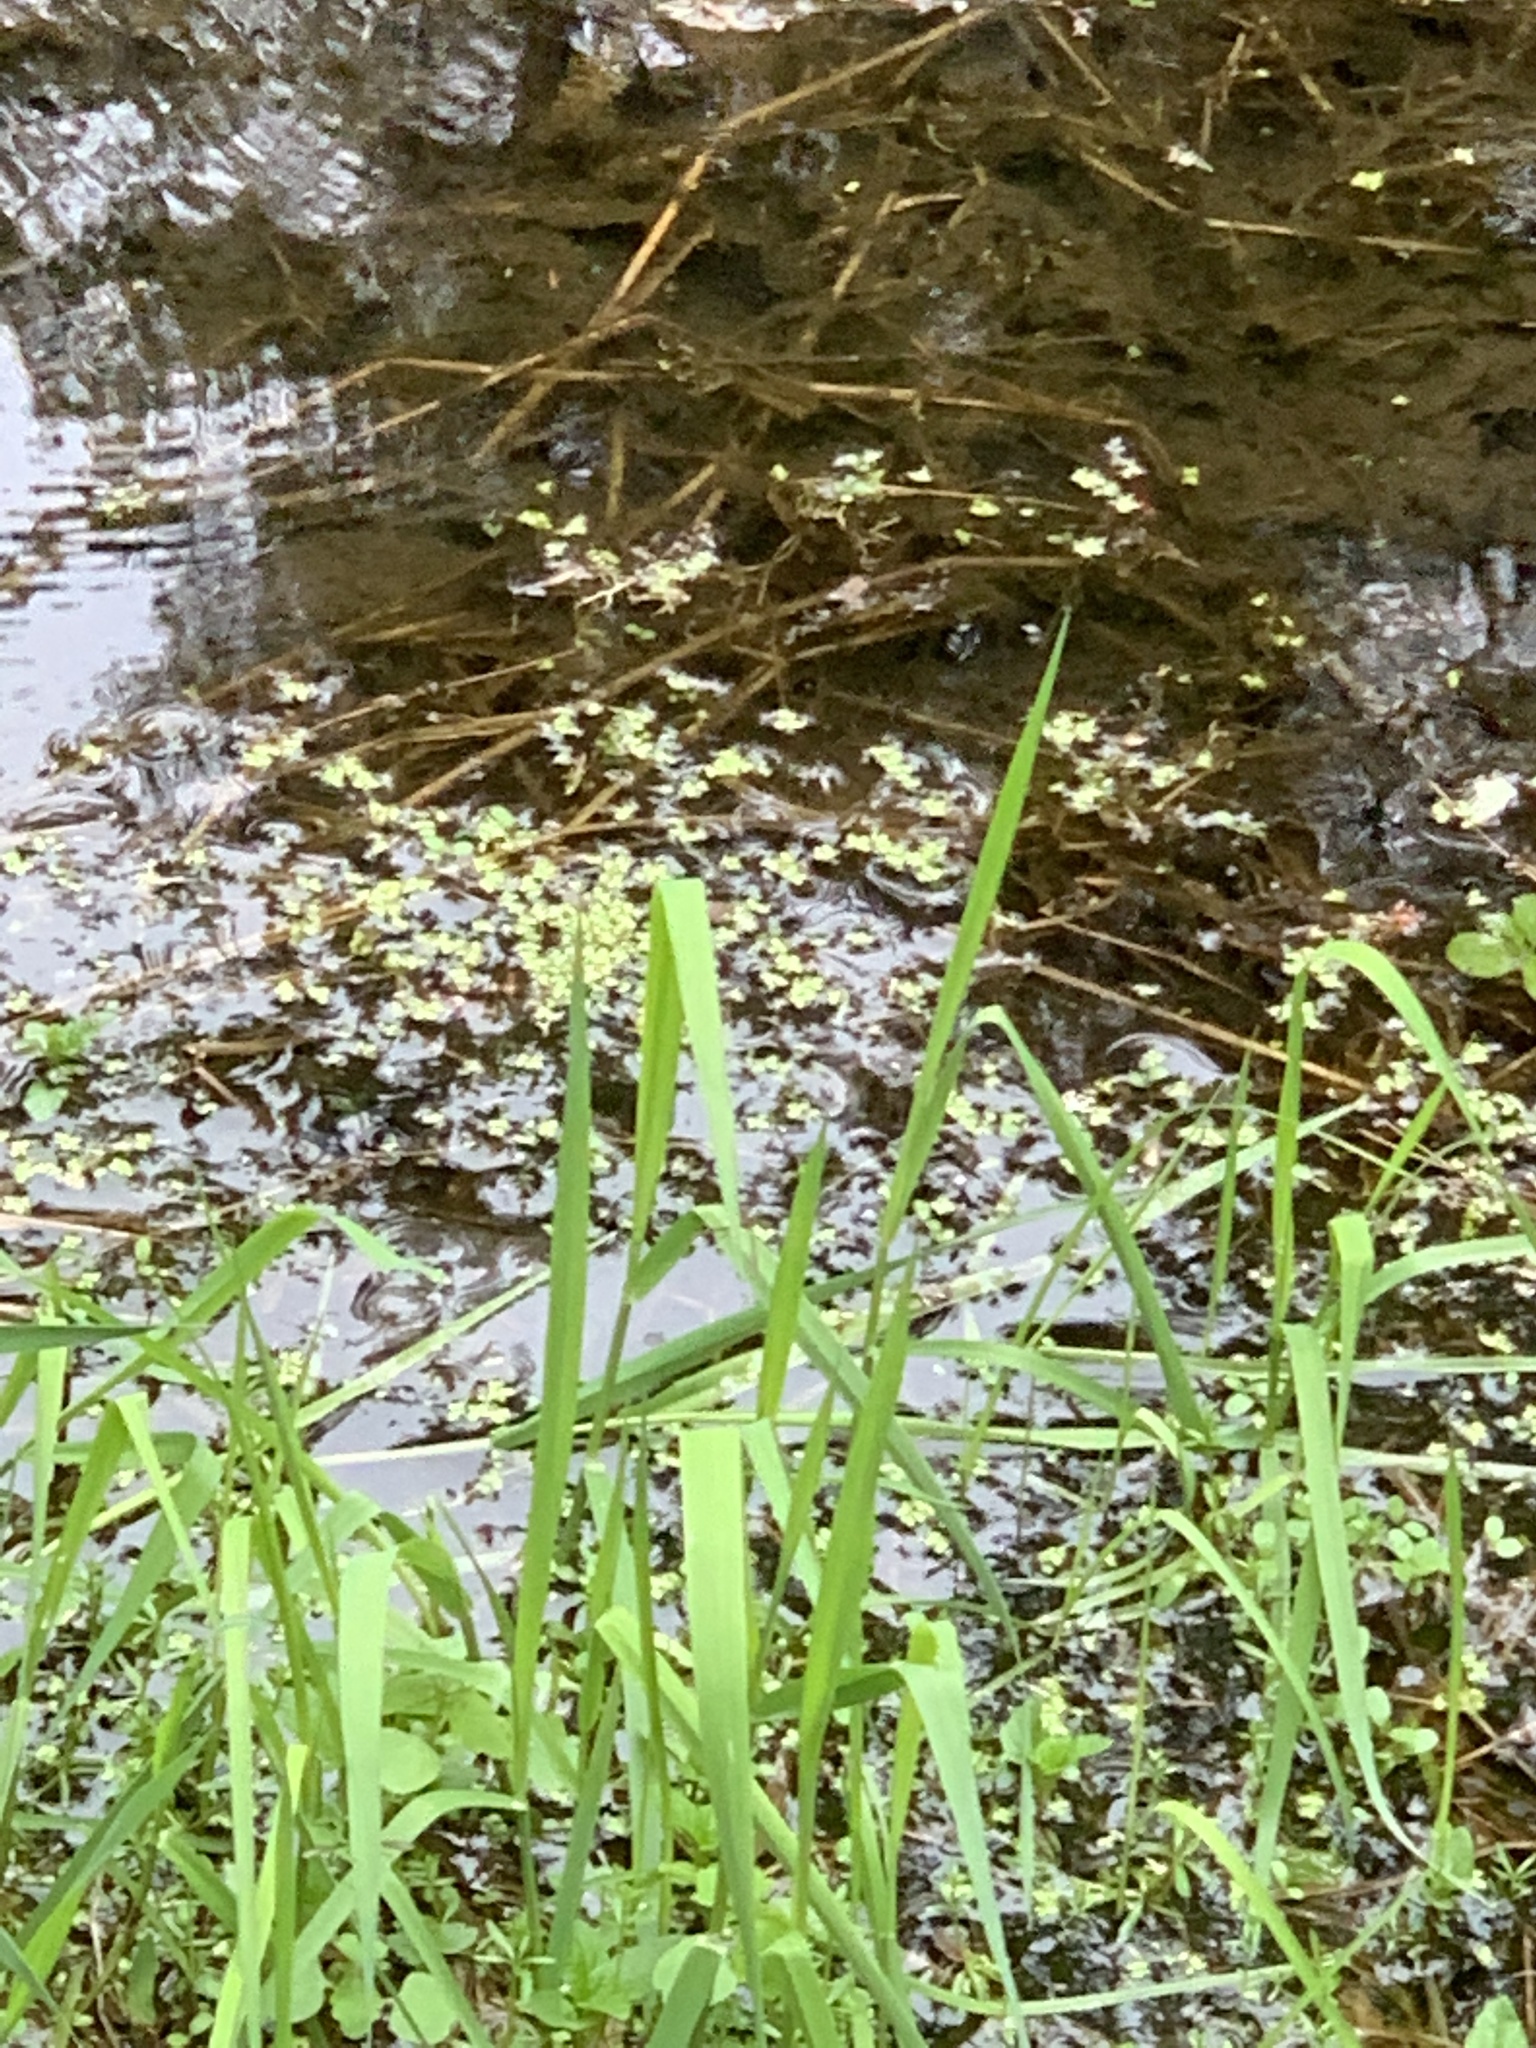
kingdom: Plantae
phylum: Tracheophyta
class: Liliopsida
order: Alismatales
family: Araceae
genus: Lemna
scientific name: Lemna
